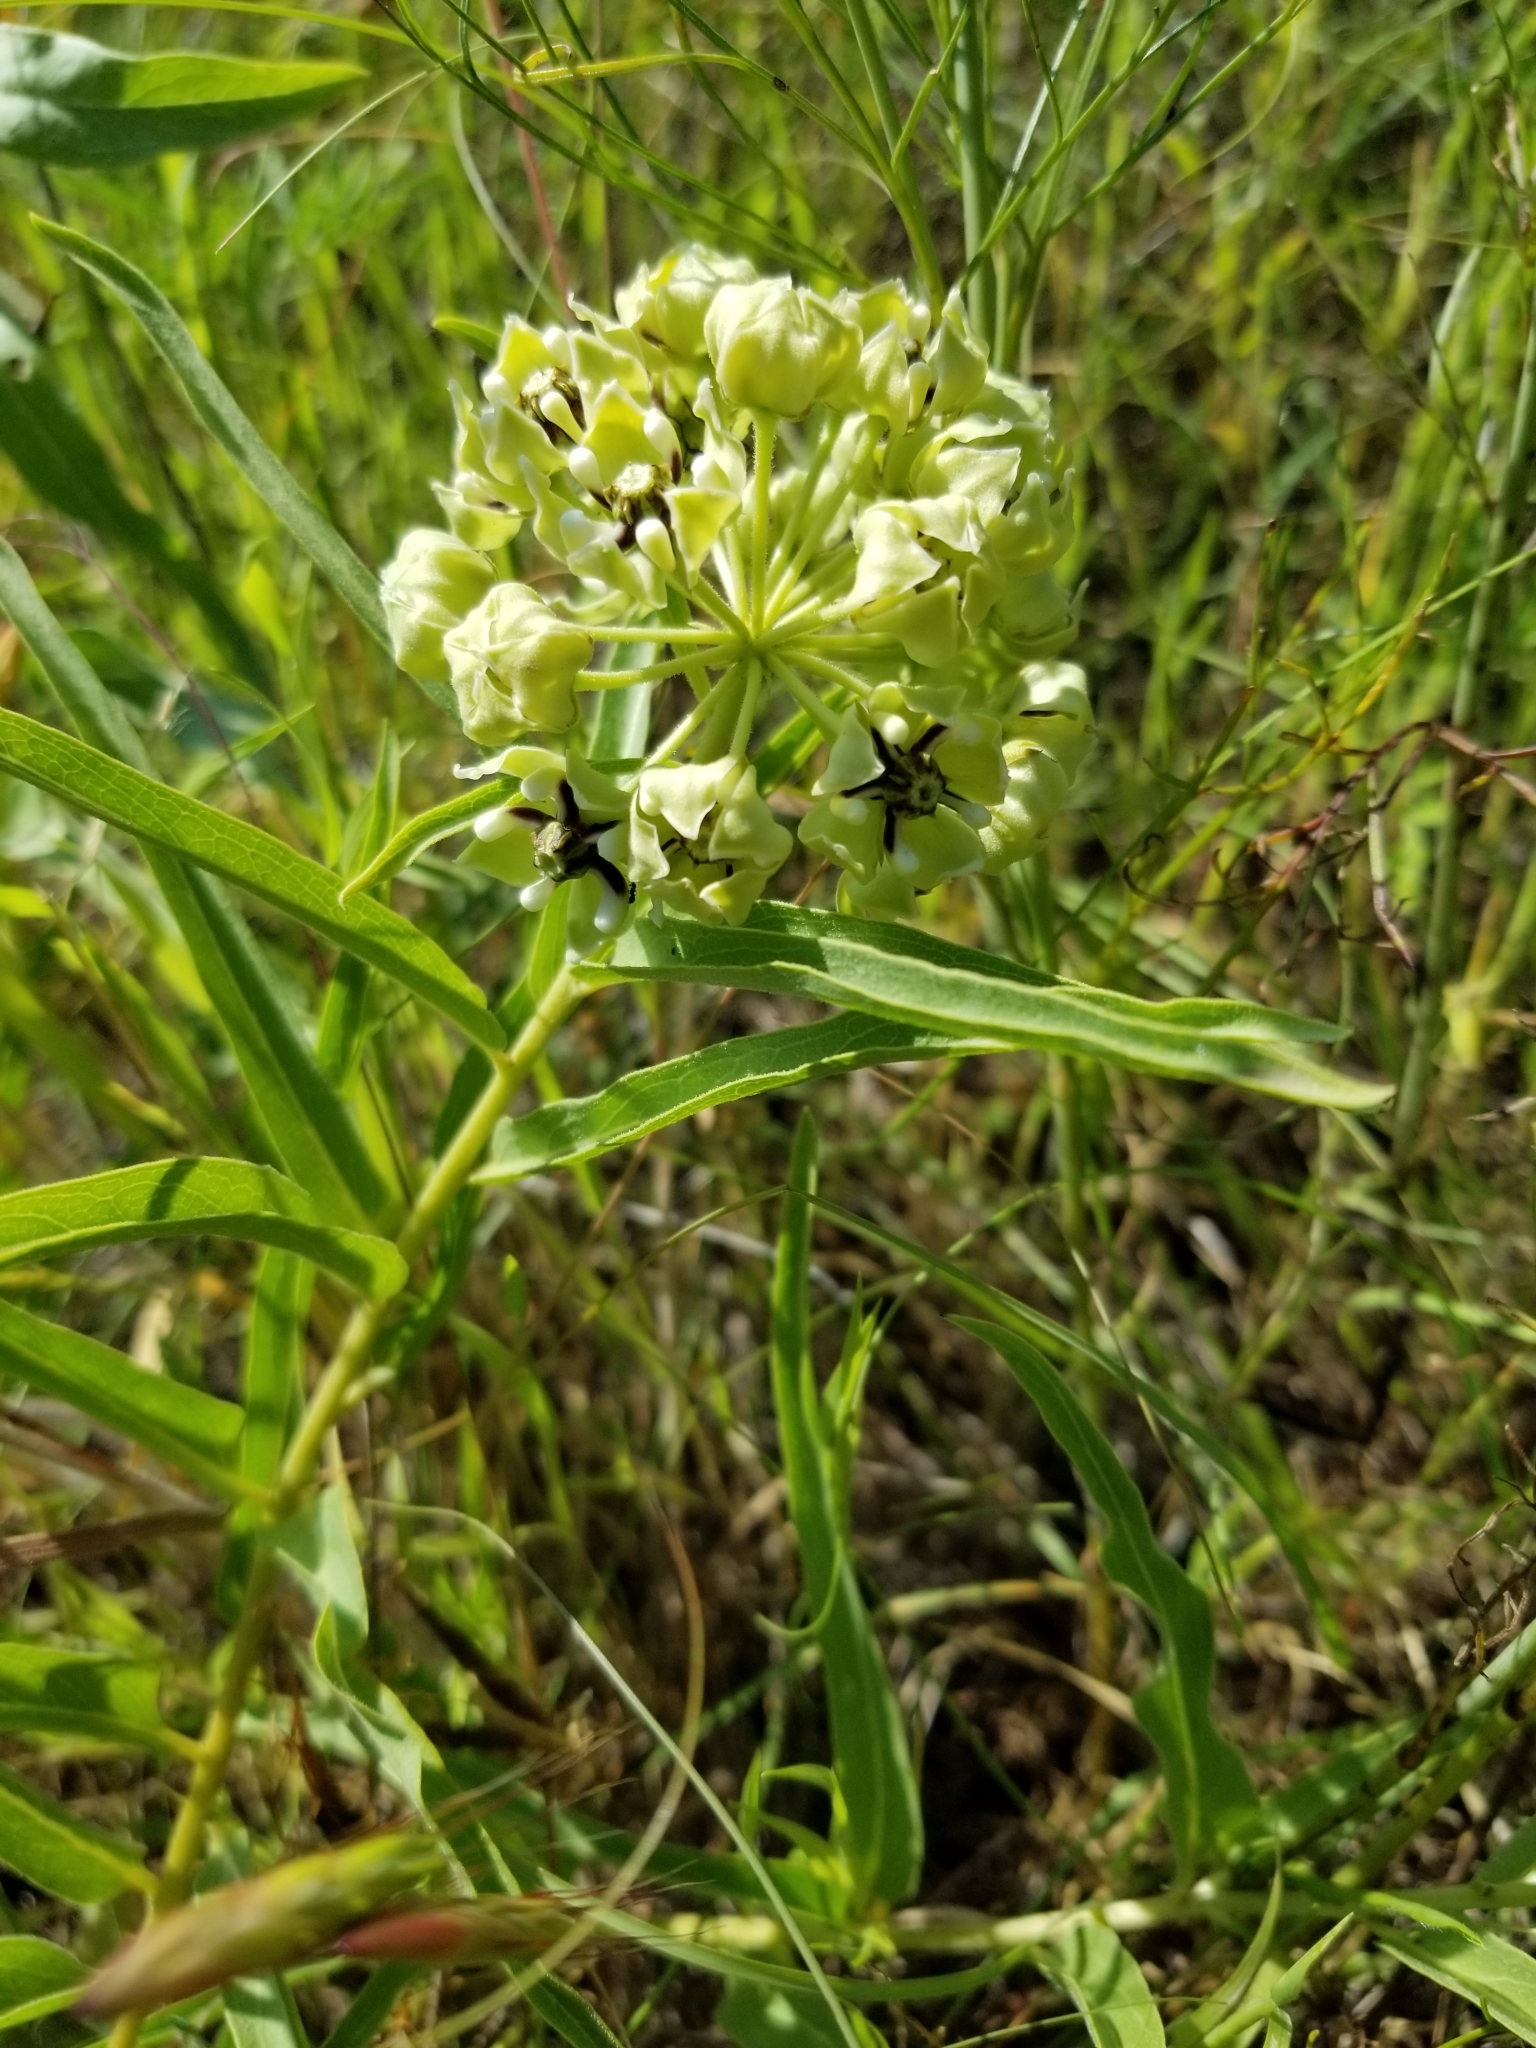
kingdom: Plantae
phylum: Tracheophyta
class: Magnoliopsida
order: Gentianales
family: Apocynaceae
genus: Asclepias
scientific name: Asclepias asperula
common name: Antelope horns
